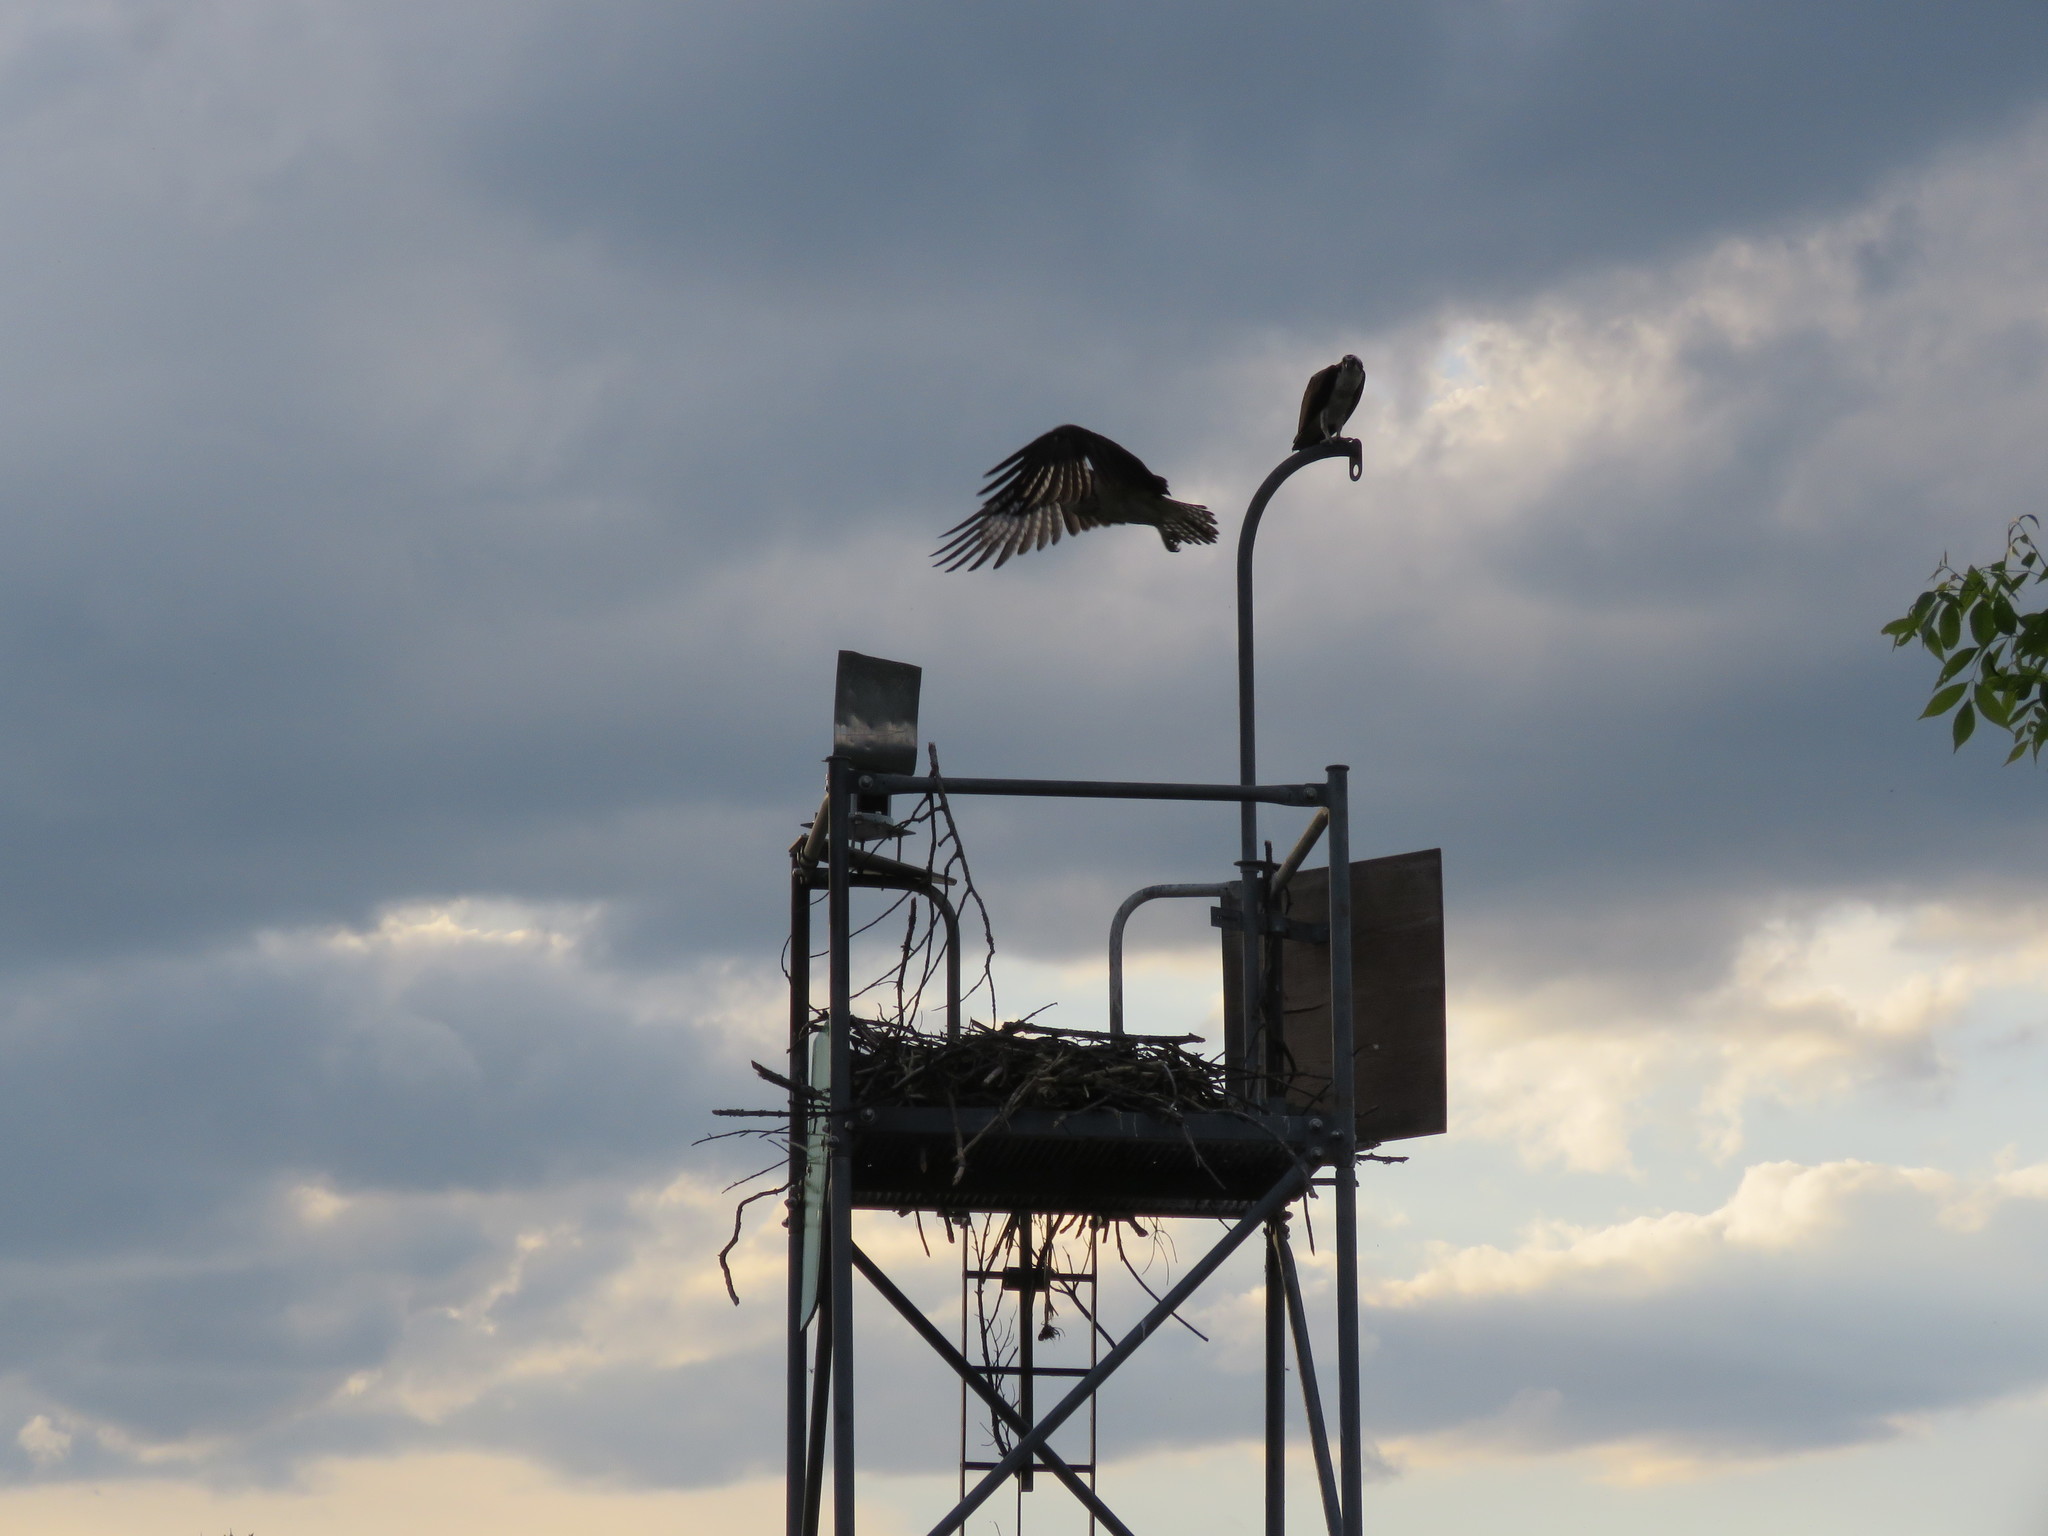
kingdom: Animalia
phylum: Chordata
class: Aves
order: Accipitriformes
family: Pandionidae
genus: Pandion
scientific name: Pandion haliaetus
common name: Osprey
